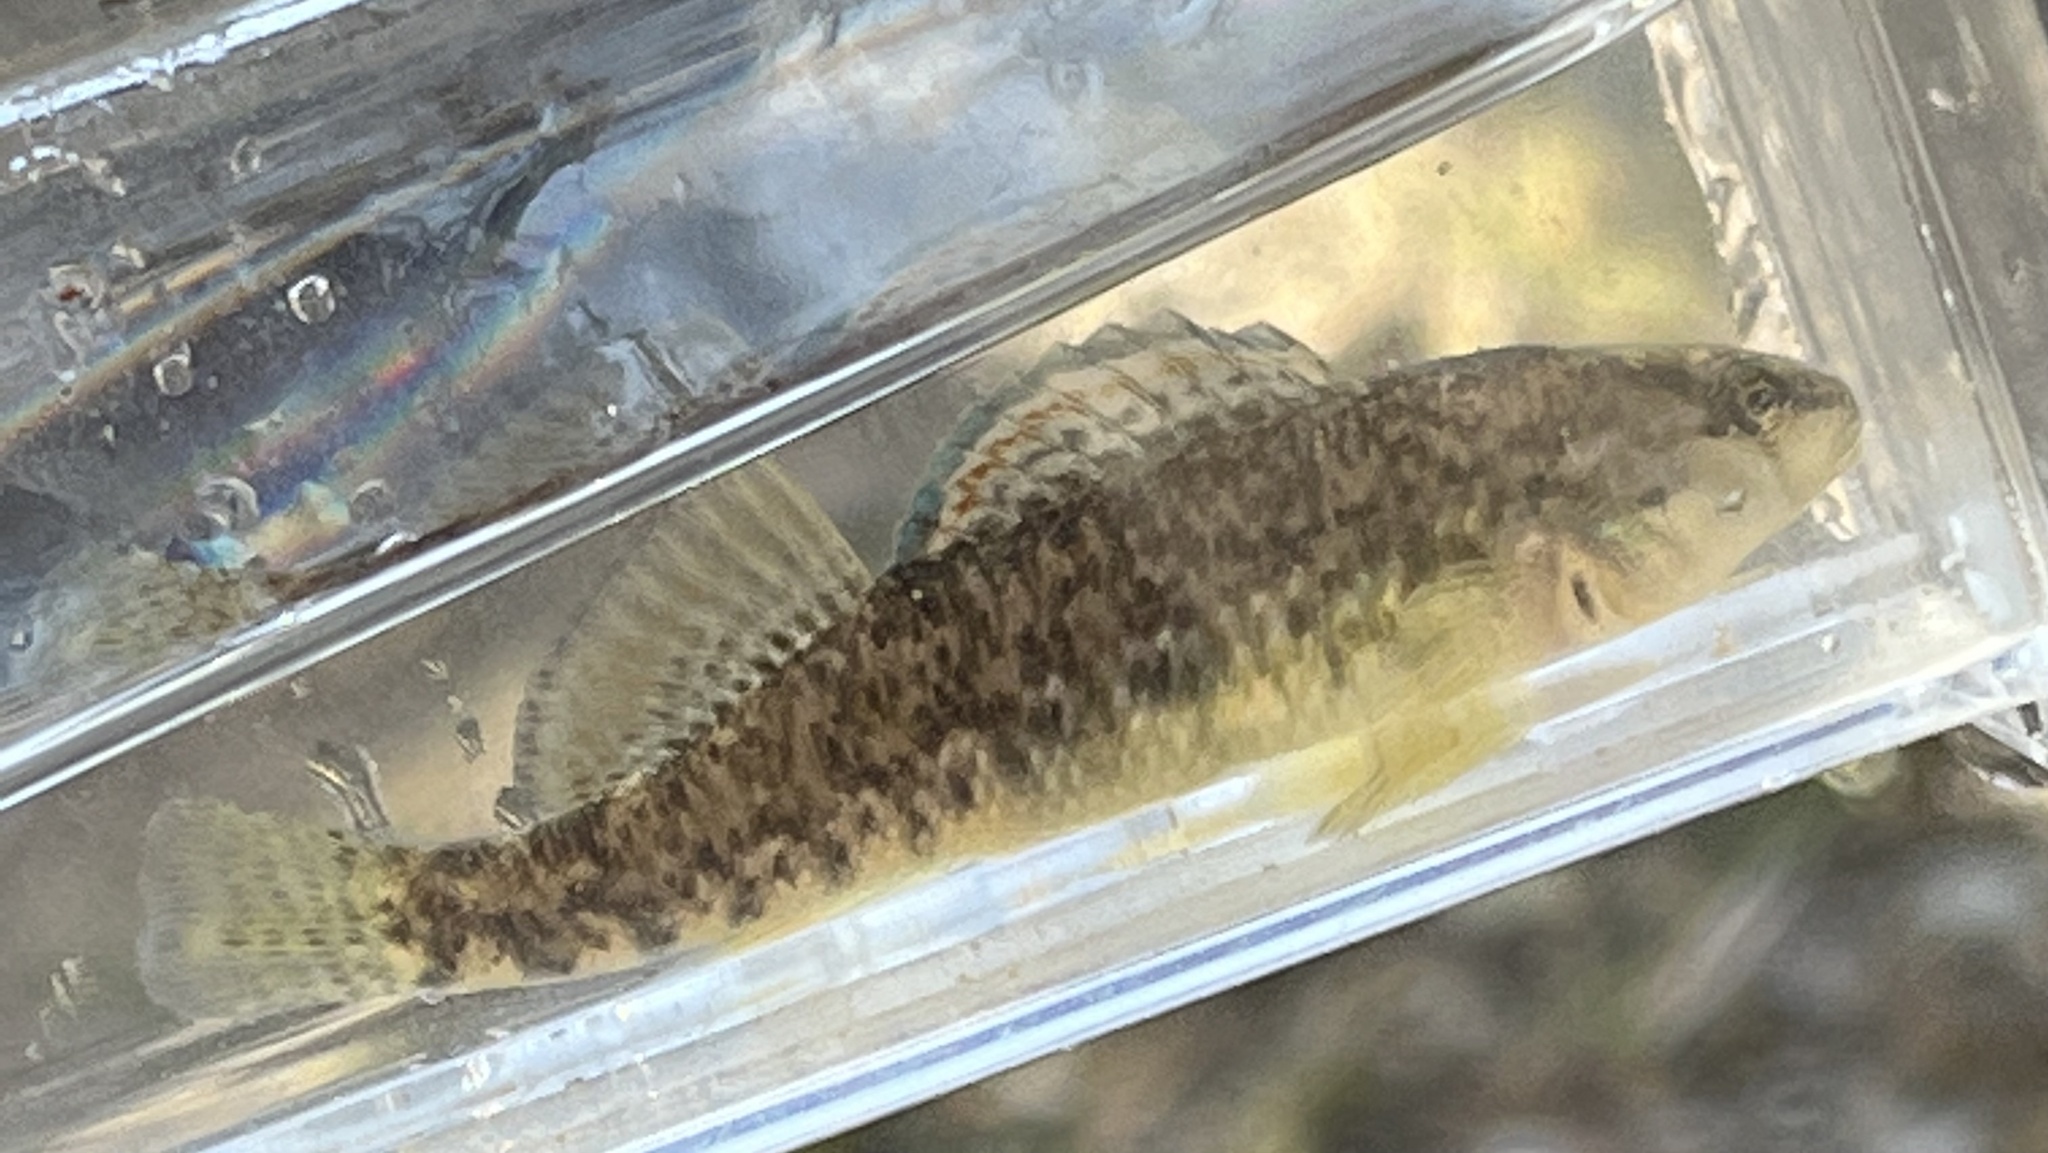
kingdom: Animalia
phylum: Chordata
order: Perciformes
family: Percidae
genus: Etheostoma
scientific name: Etheostoma caeruleum
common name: Rainbow darter
